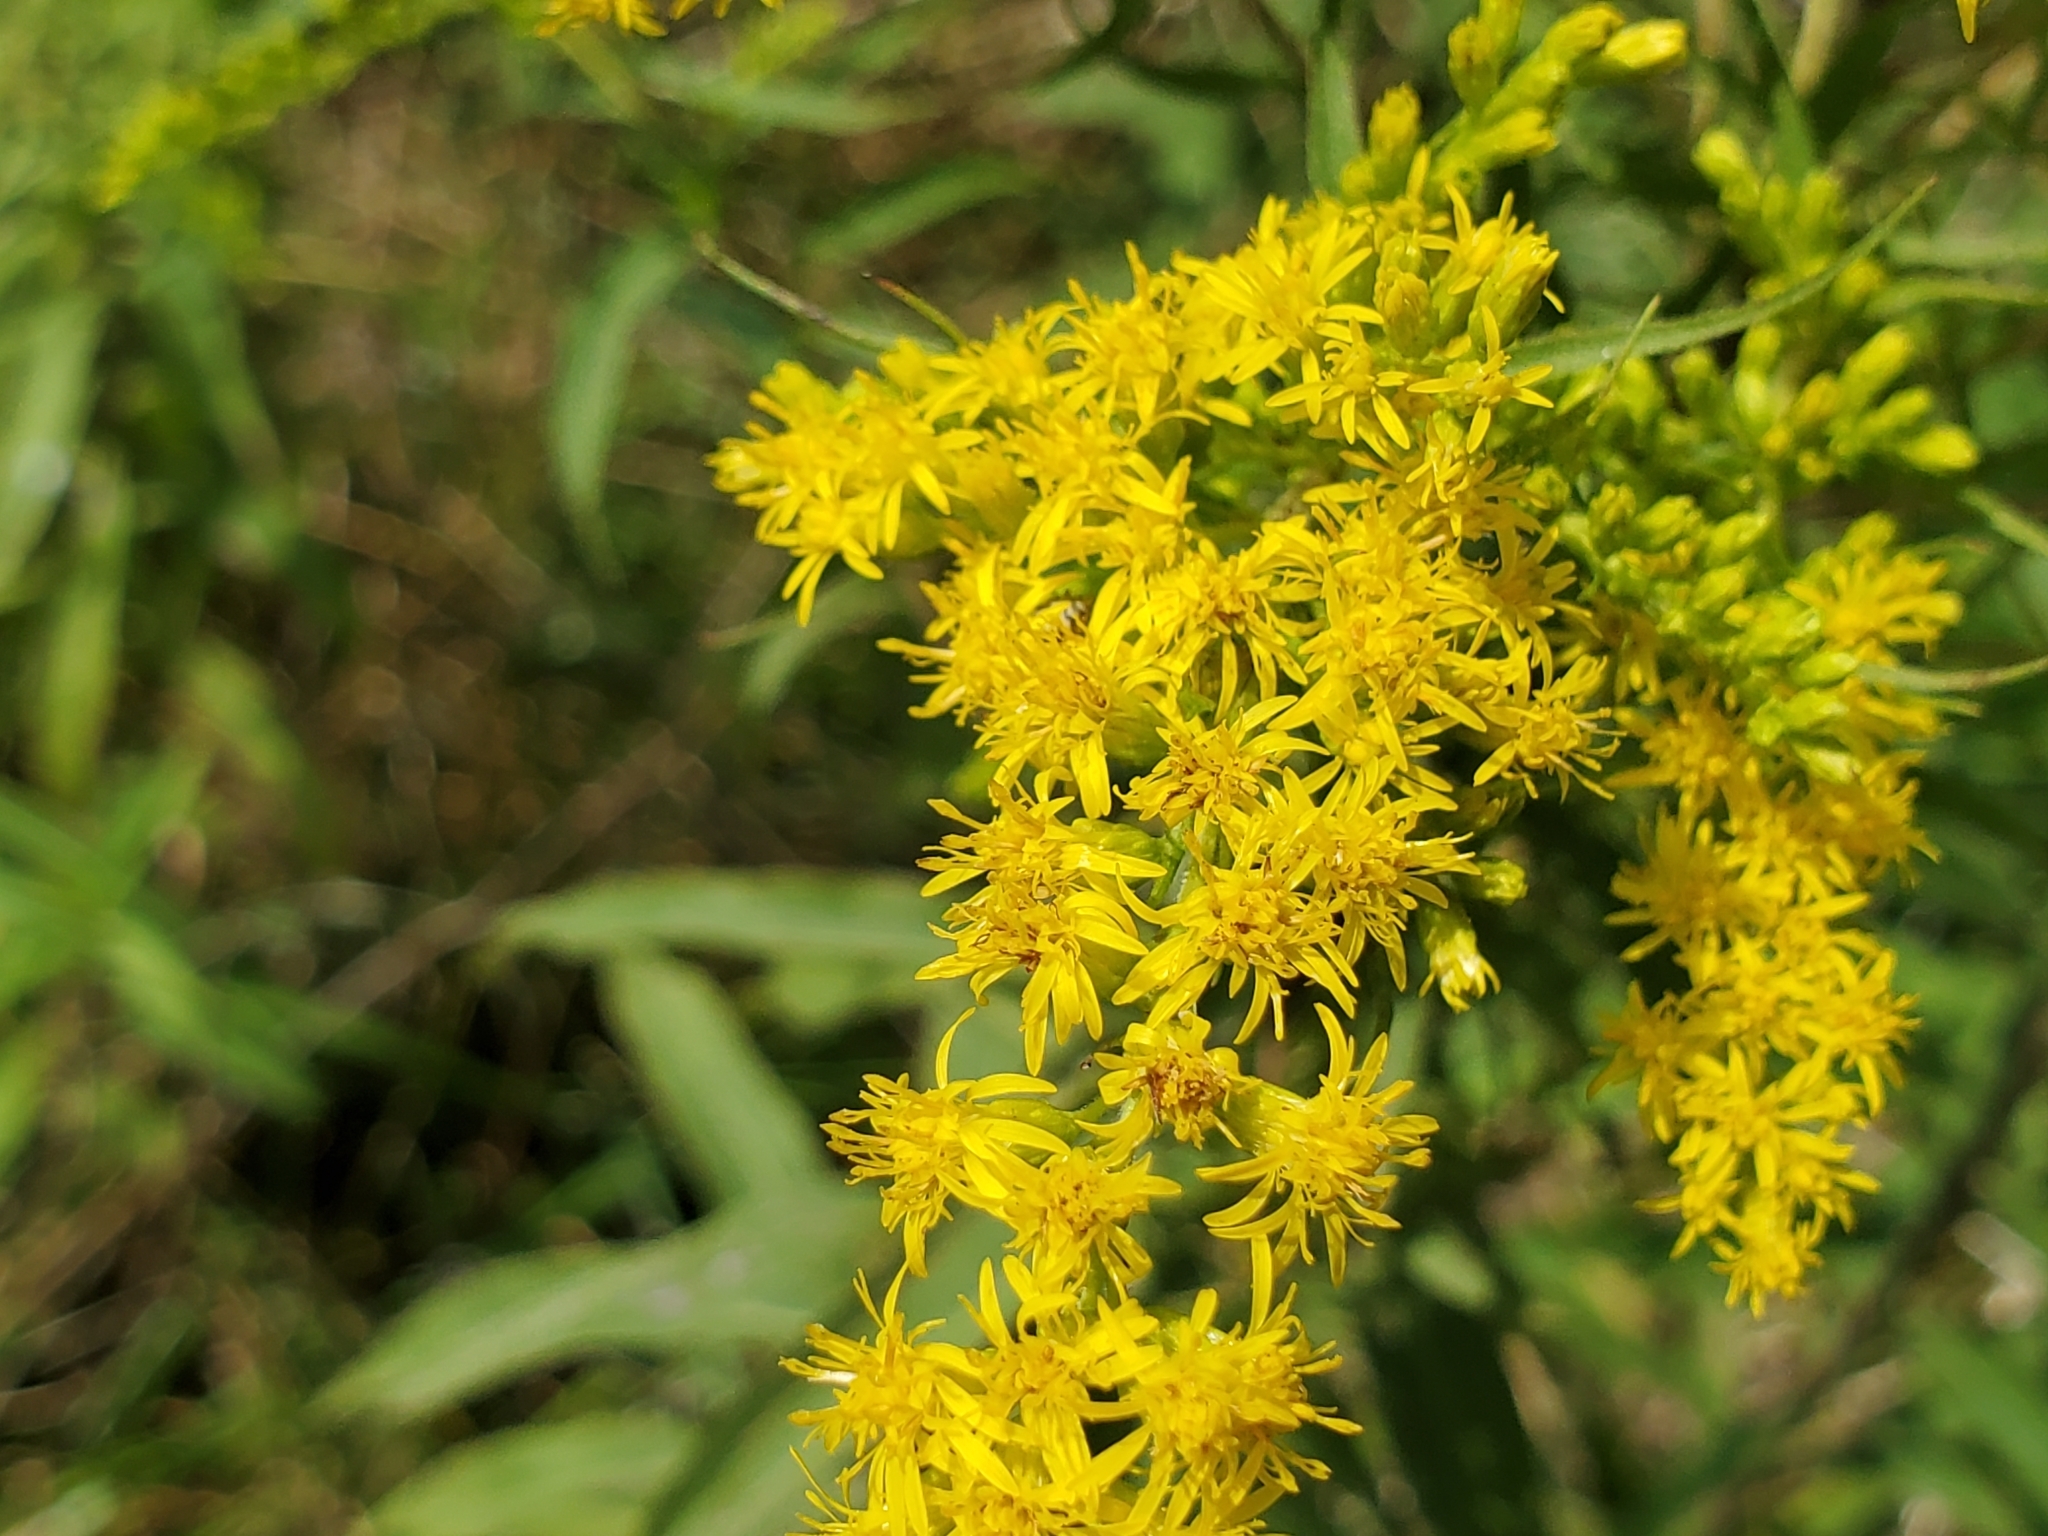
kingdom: Plantae
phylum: Tracheophyta
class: Magnoliopsida
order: Asterales
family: Asteraceae
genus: Solidago
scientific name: Solidago gigantea
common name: Giant goldenrod
